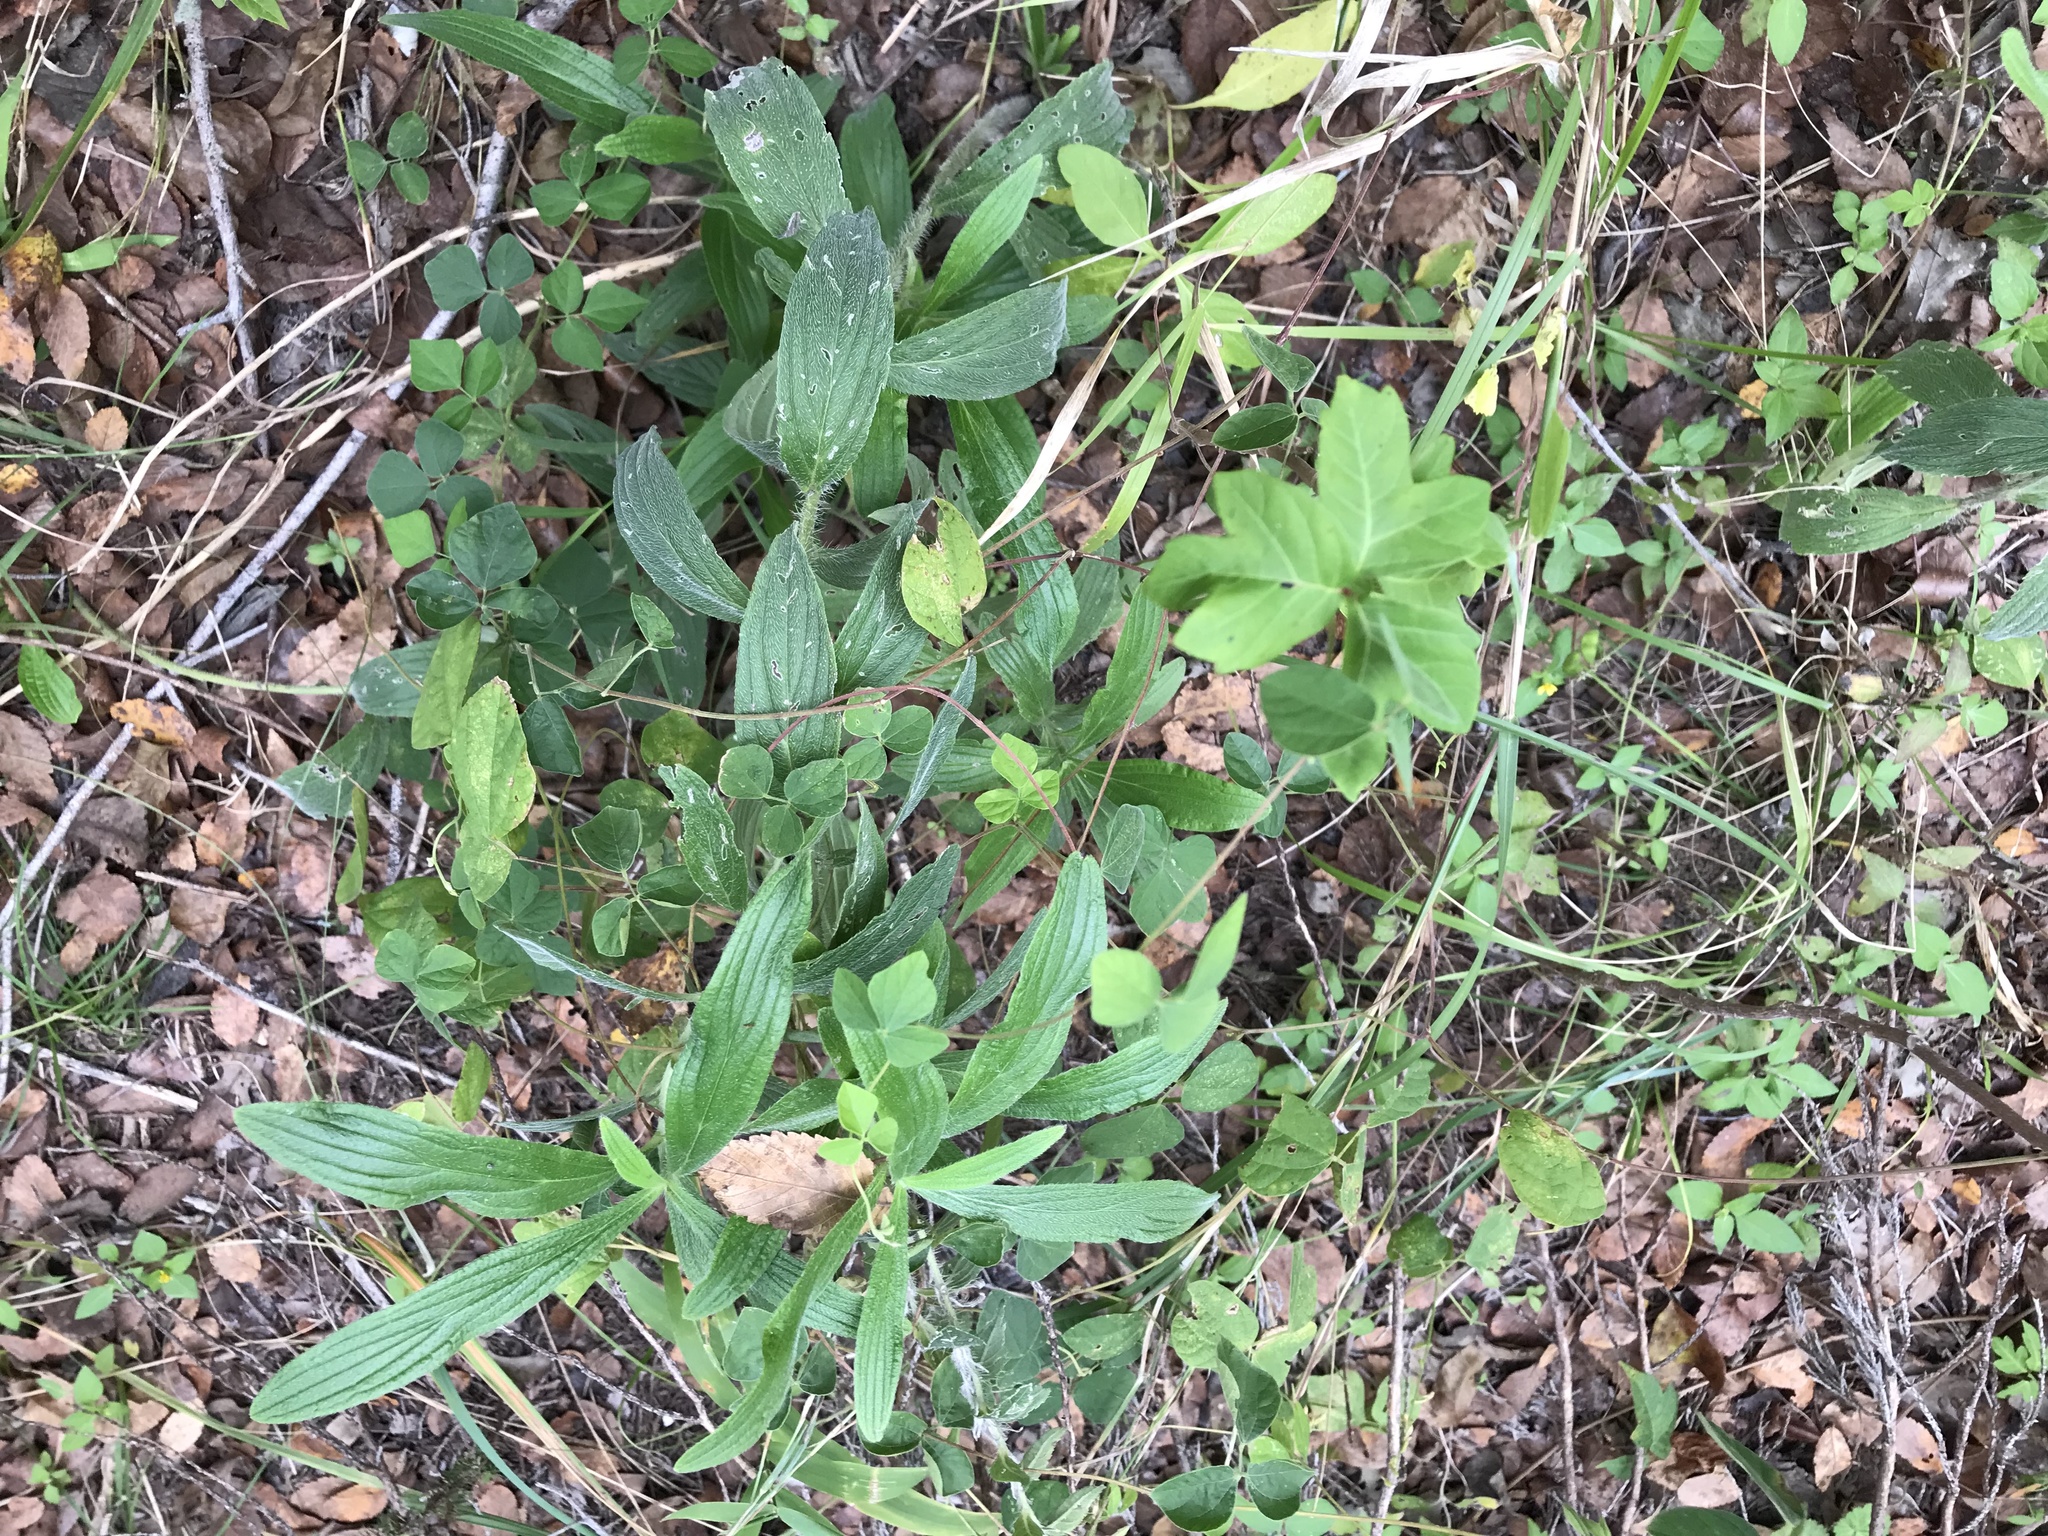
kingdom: Plantae
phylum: Tracheophyta
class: Magnoliopsida
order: Boraginales
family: Boraginaceae
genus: Lithospermum
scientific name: Lithospermum caroliniense
